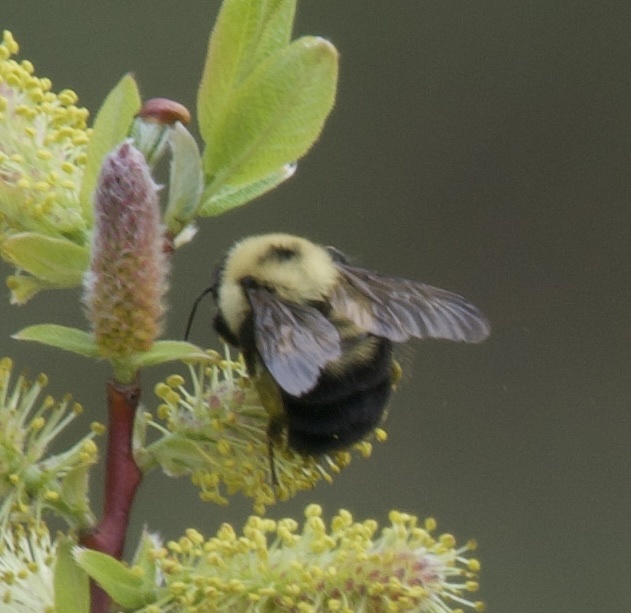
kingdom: Animalia
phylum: Arthropoda
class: Insecta
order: Hymenoptera
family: Apidae
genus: Bombus
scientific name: Bombus bimaculatus
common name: Two-spotted bumble bee
